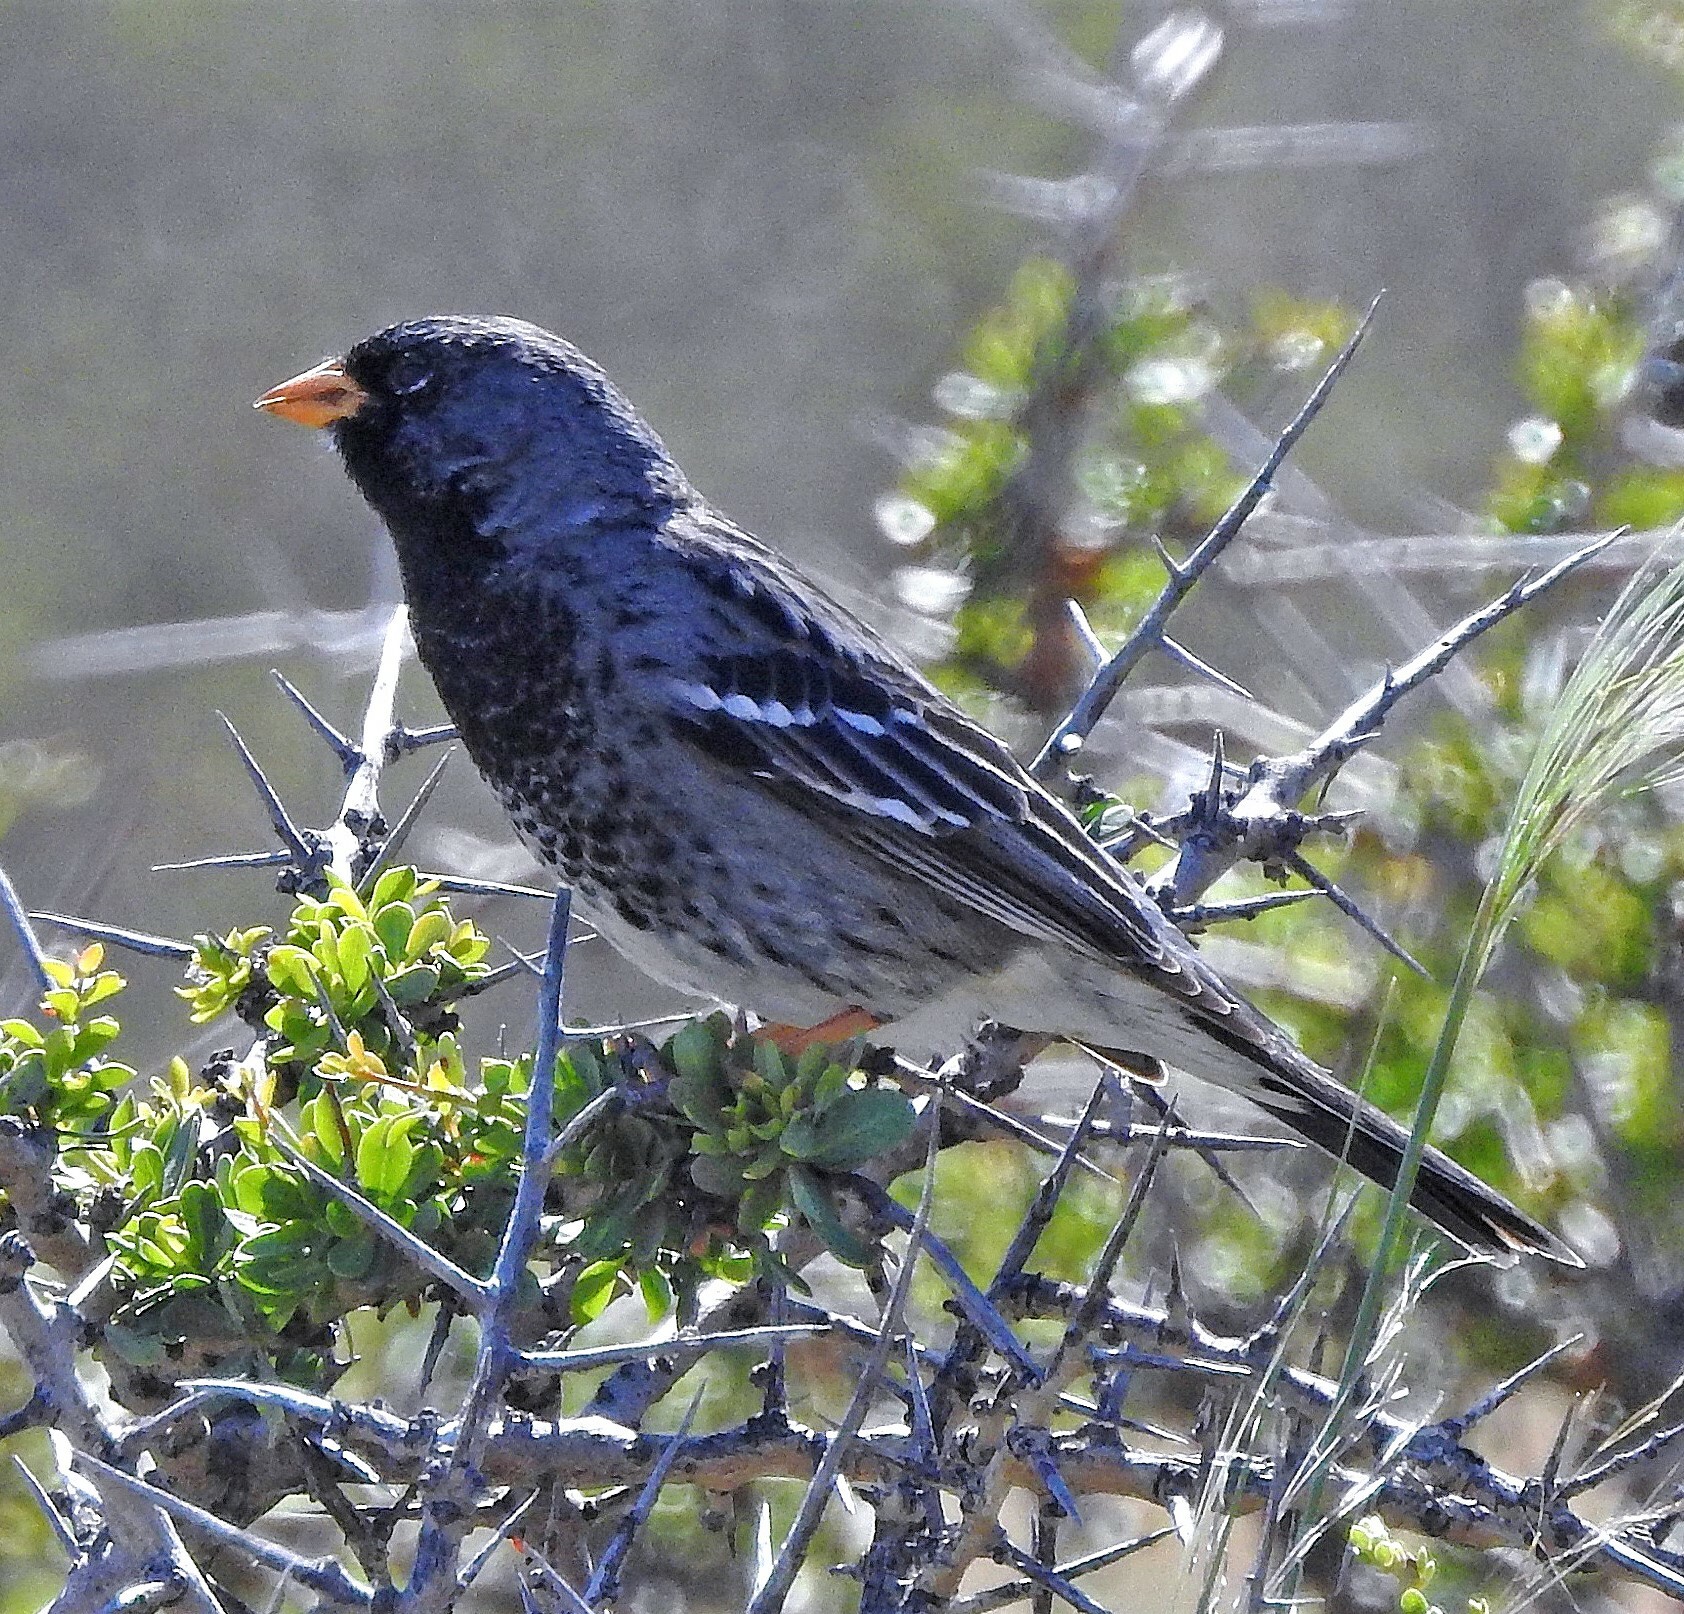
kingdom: Animalia
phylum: Chordata
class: Aves
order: Passeriformes
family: Thraupidae
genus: Rhopospina
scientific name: Rhopospina fruticeti
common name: Mourning sierra finch
